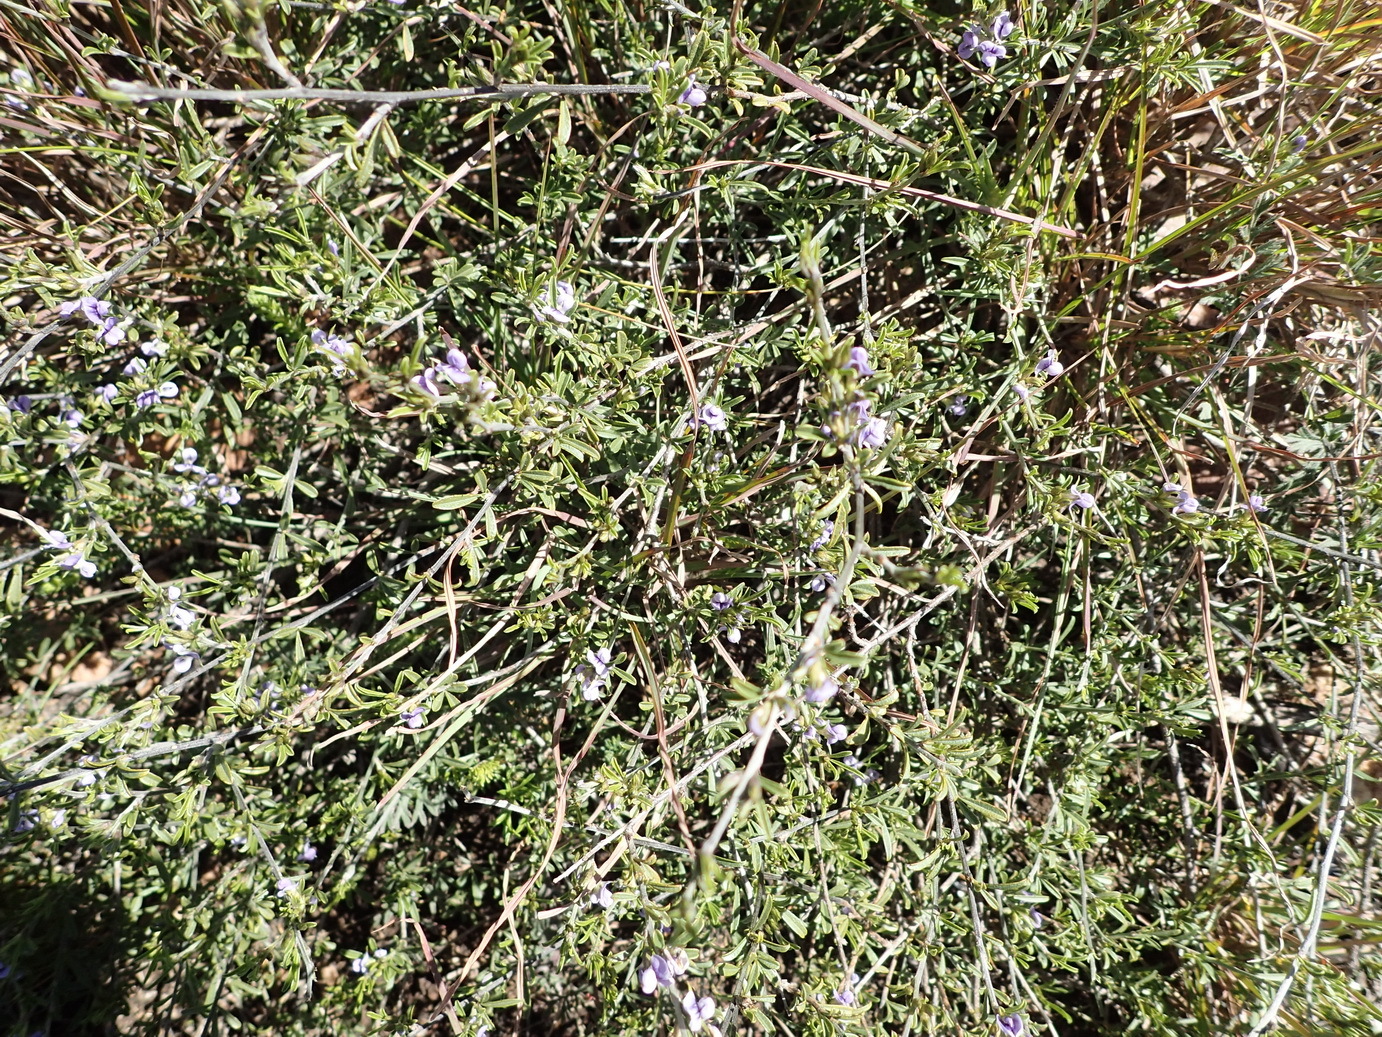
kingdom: Plantae
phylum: Tracheophyta
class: Magnoliopsida
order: Fabales
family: Fabaceae
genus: Psoralea
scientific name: Psoralea candicans
